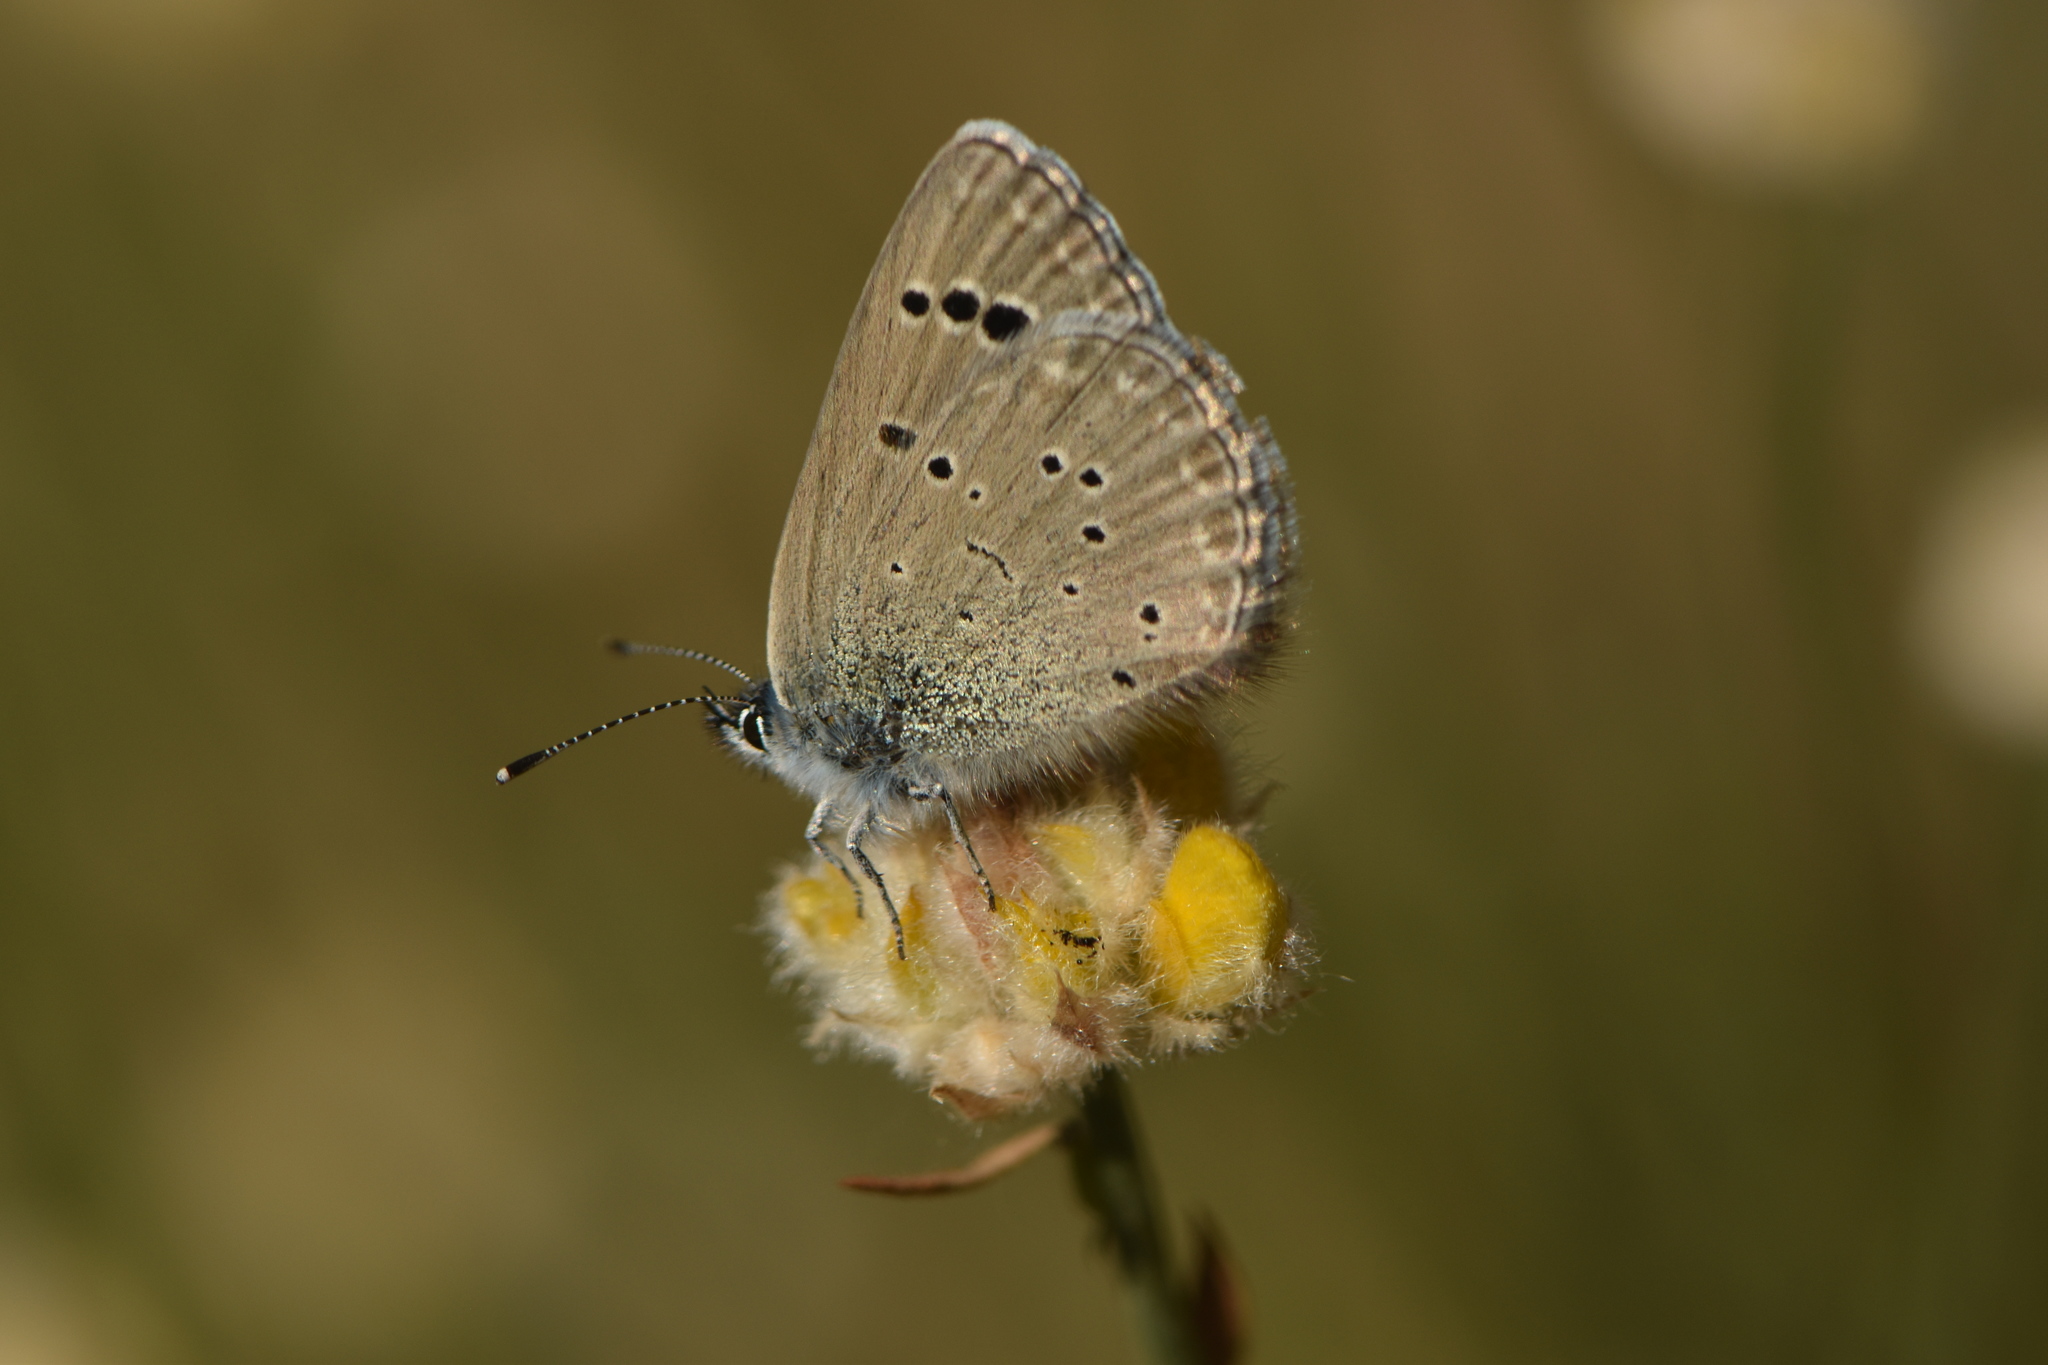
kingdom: Animalia
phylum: Arthropoda
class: Insecta
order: Lepidoptera
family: Lycaenidae
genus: Glaucopsyche
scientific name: Glaucopsyche melanops
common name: Black-eyed blue
